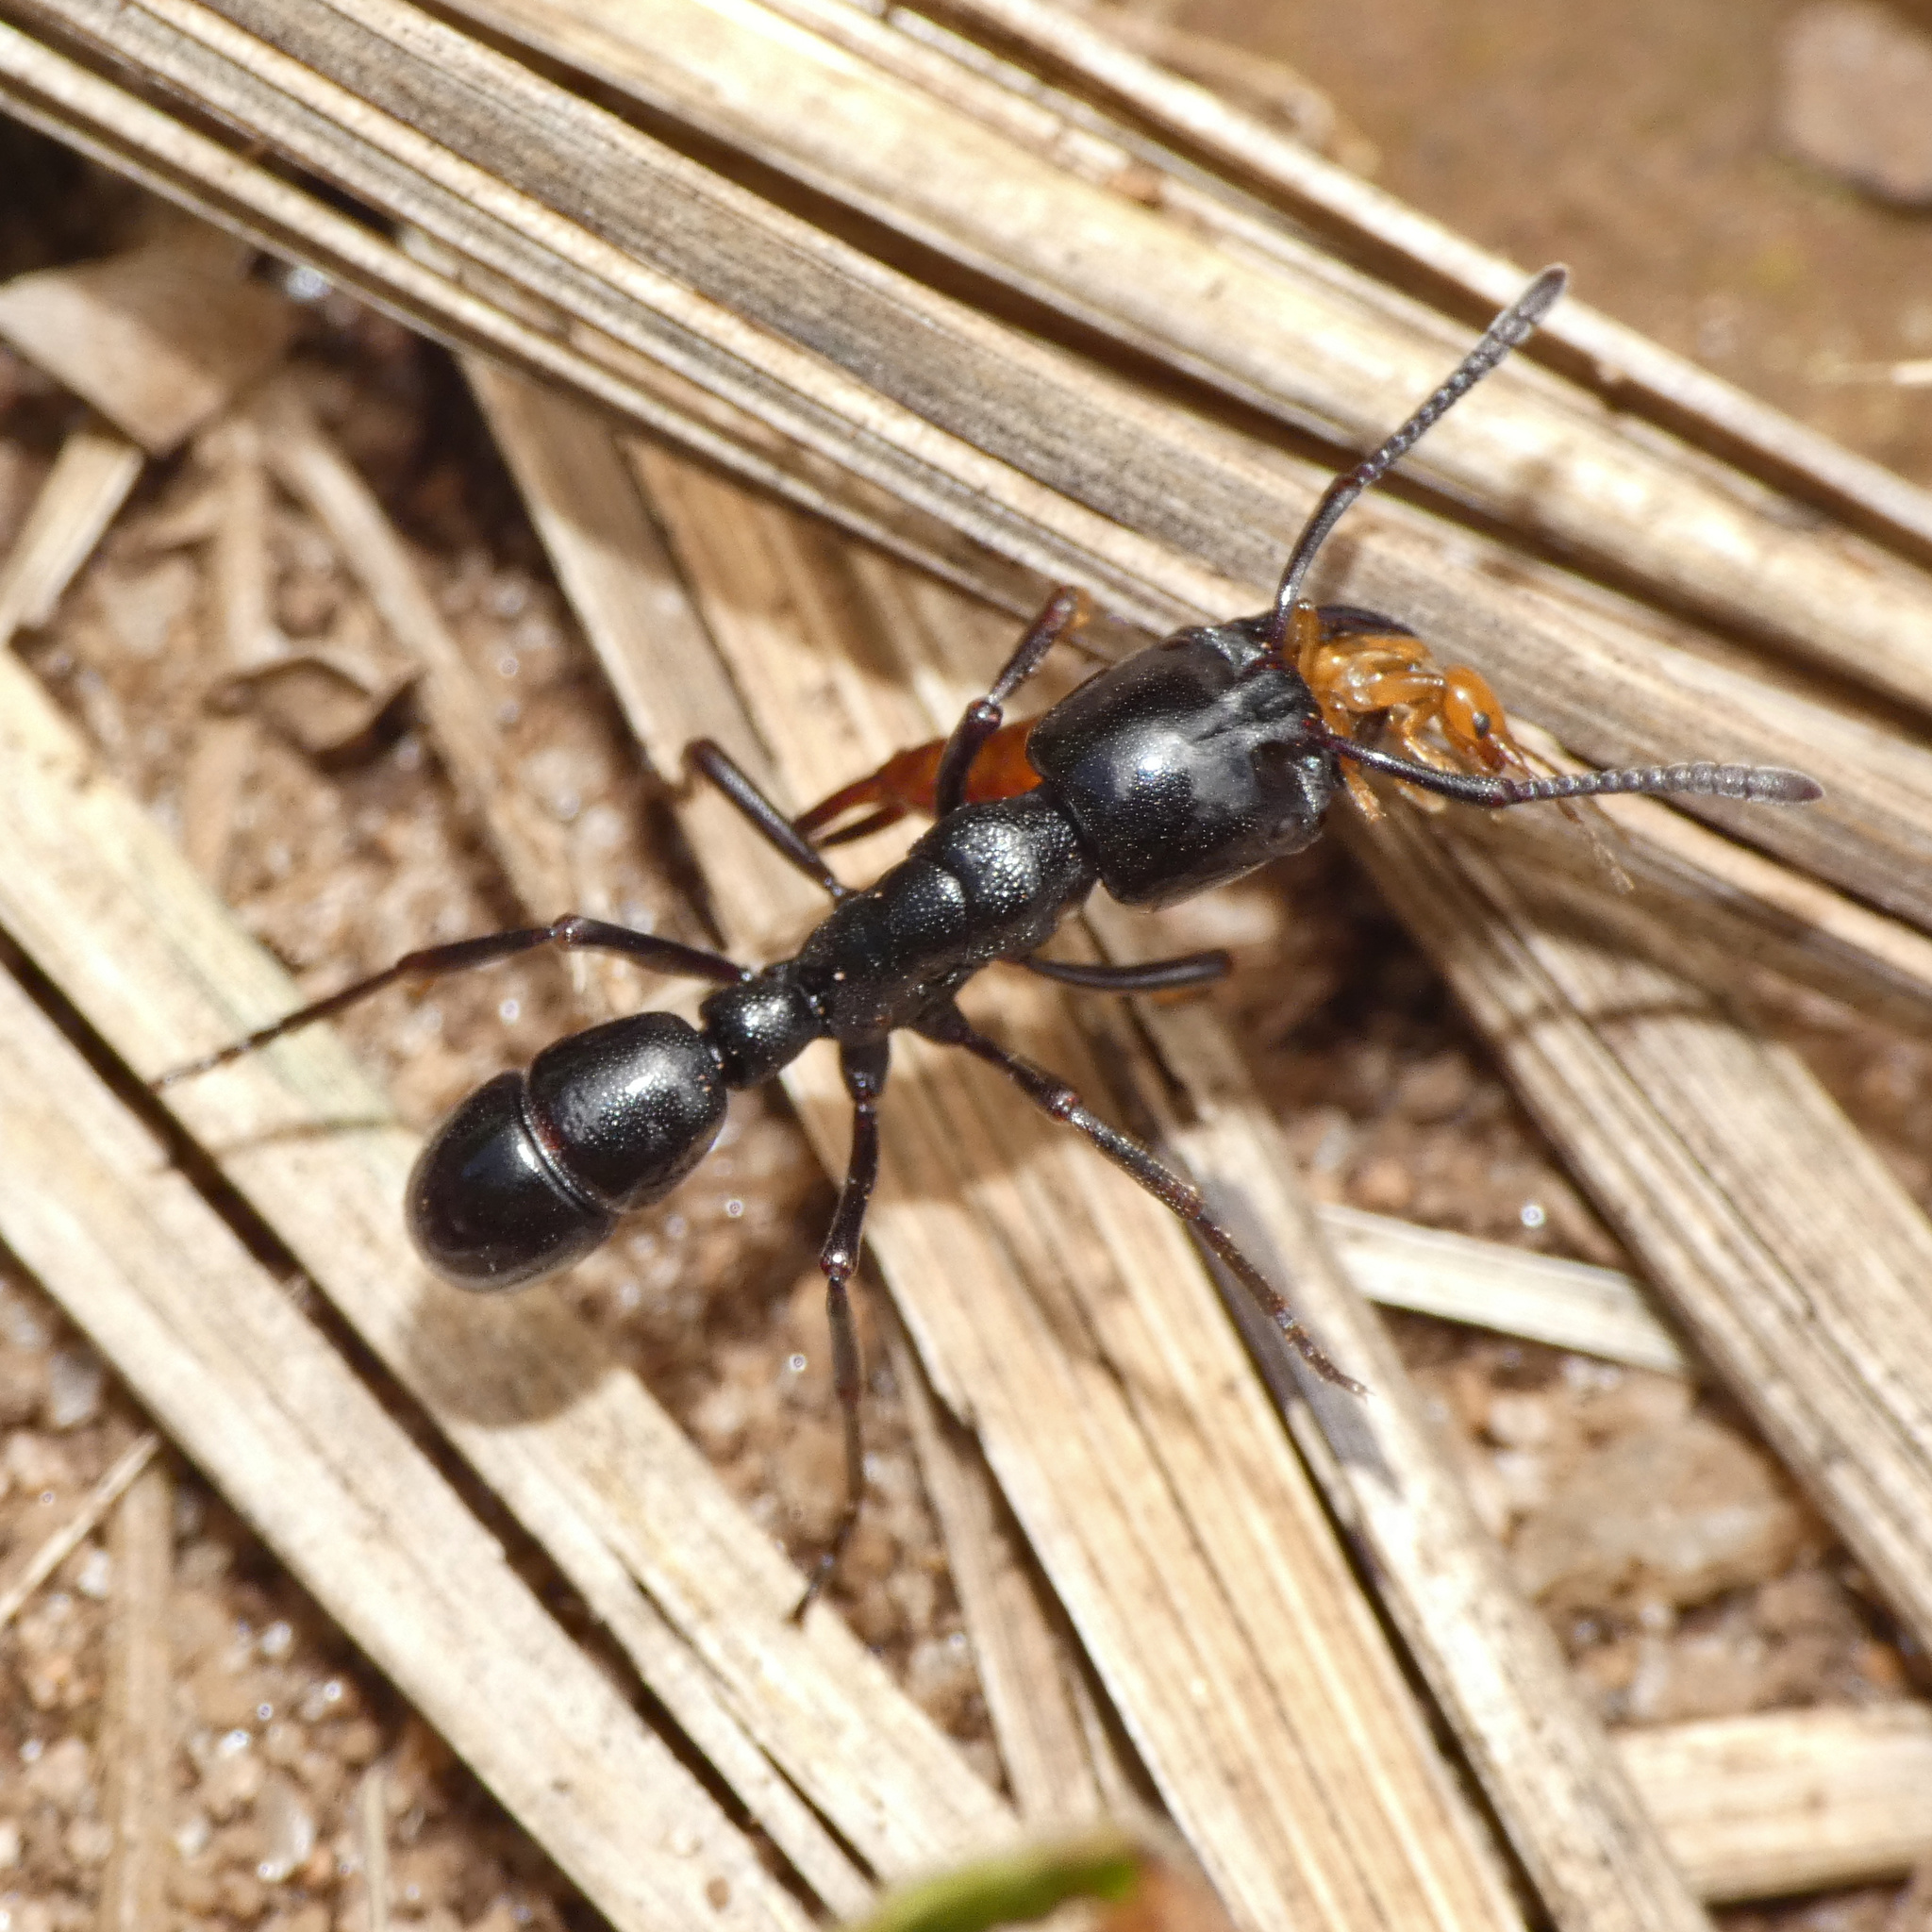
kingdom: Animalia
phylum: Arthropoda
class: Insecta
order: Hymenoptera
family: Formicidae
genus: Plectroctena
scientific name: Plectroctena mandibularis
